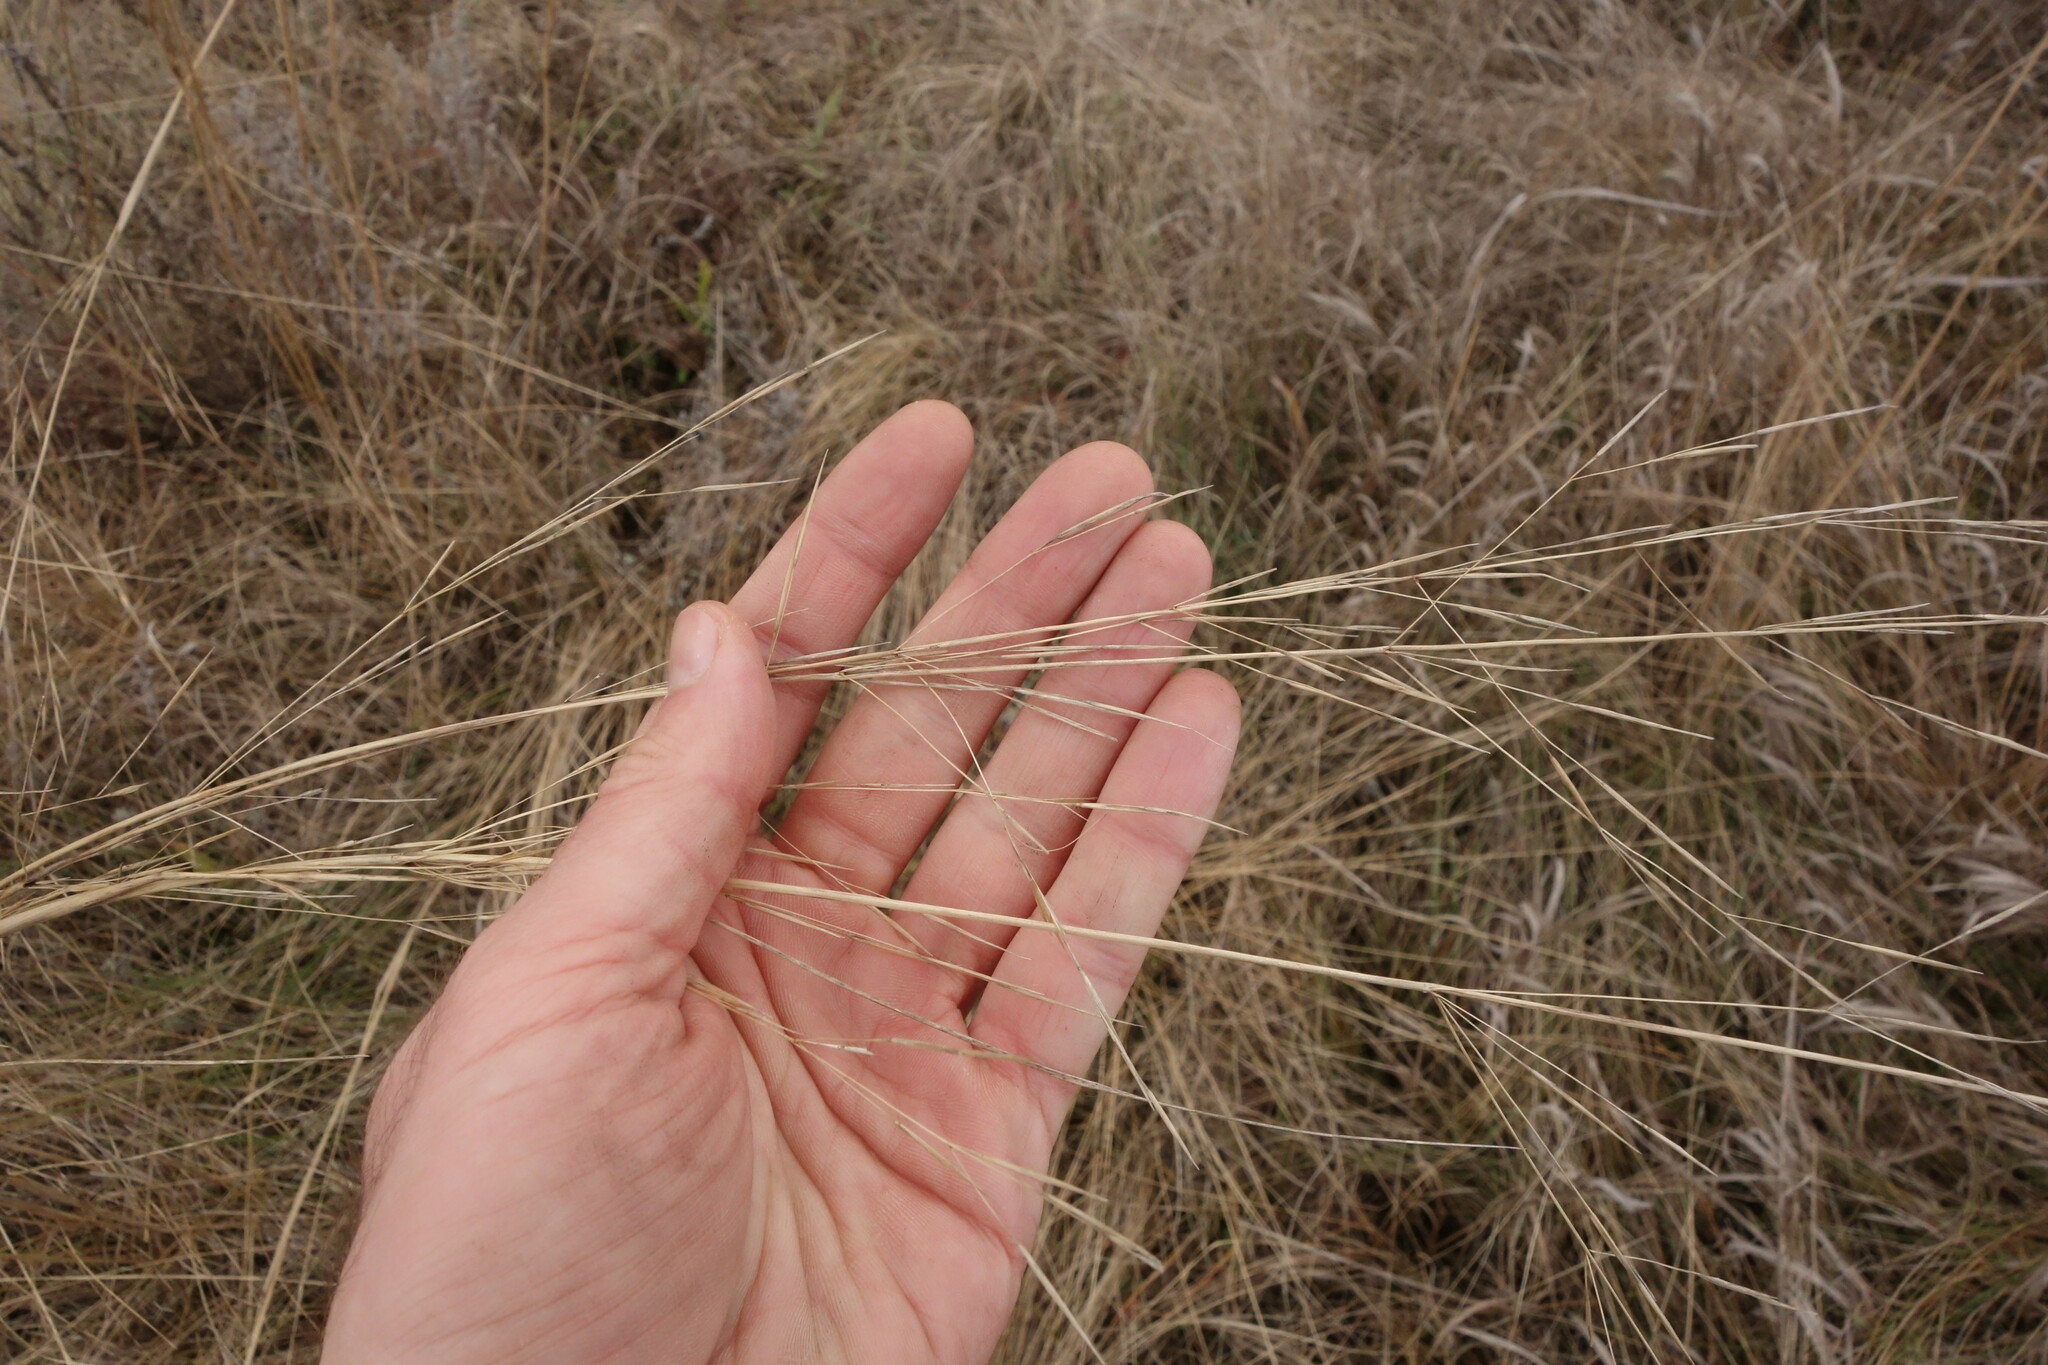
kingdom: Plantae
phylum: Tracheophyta
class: Liliopsida
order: Poales
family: Poaceae
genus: Stipa
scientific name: Stipa capillata
